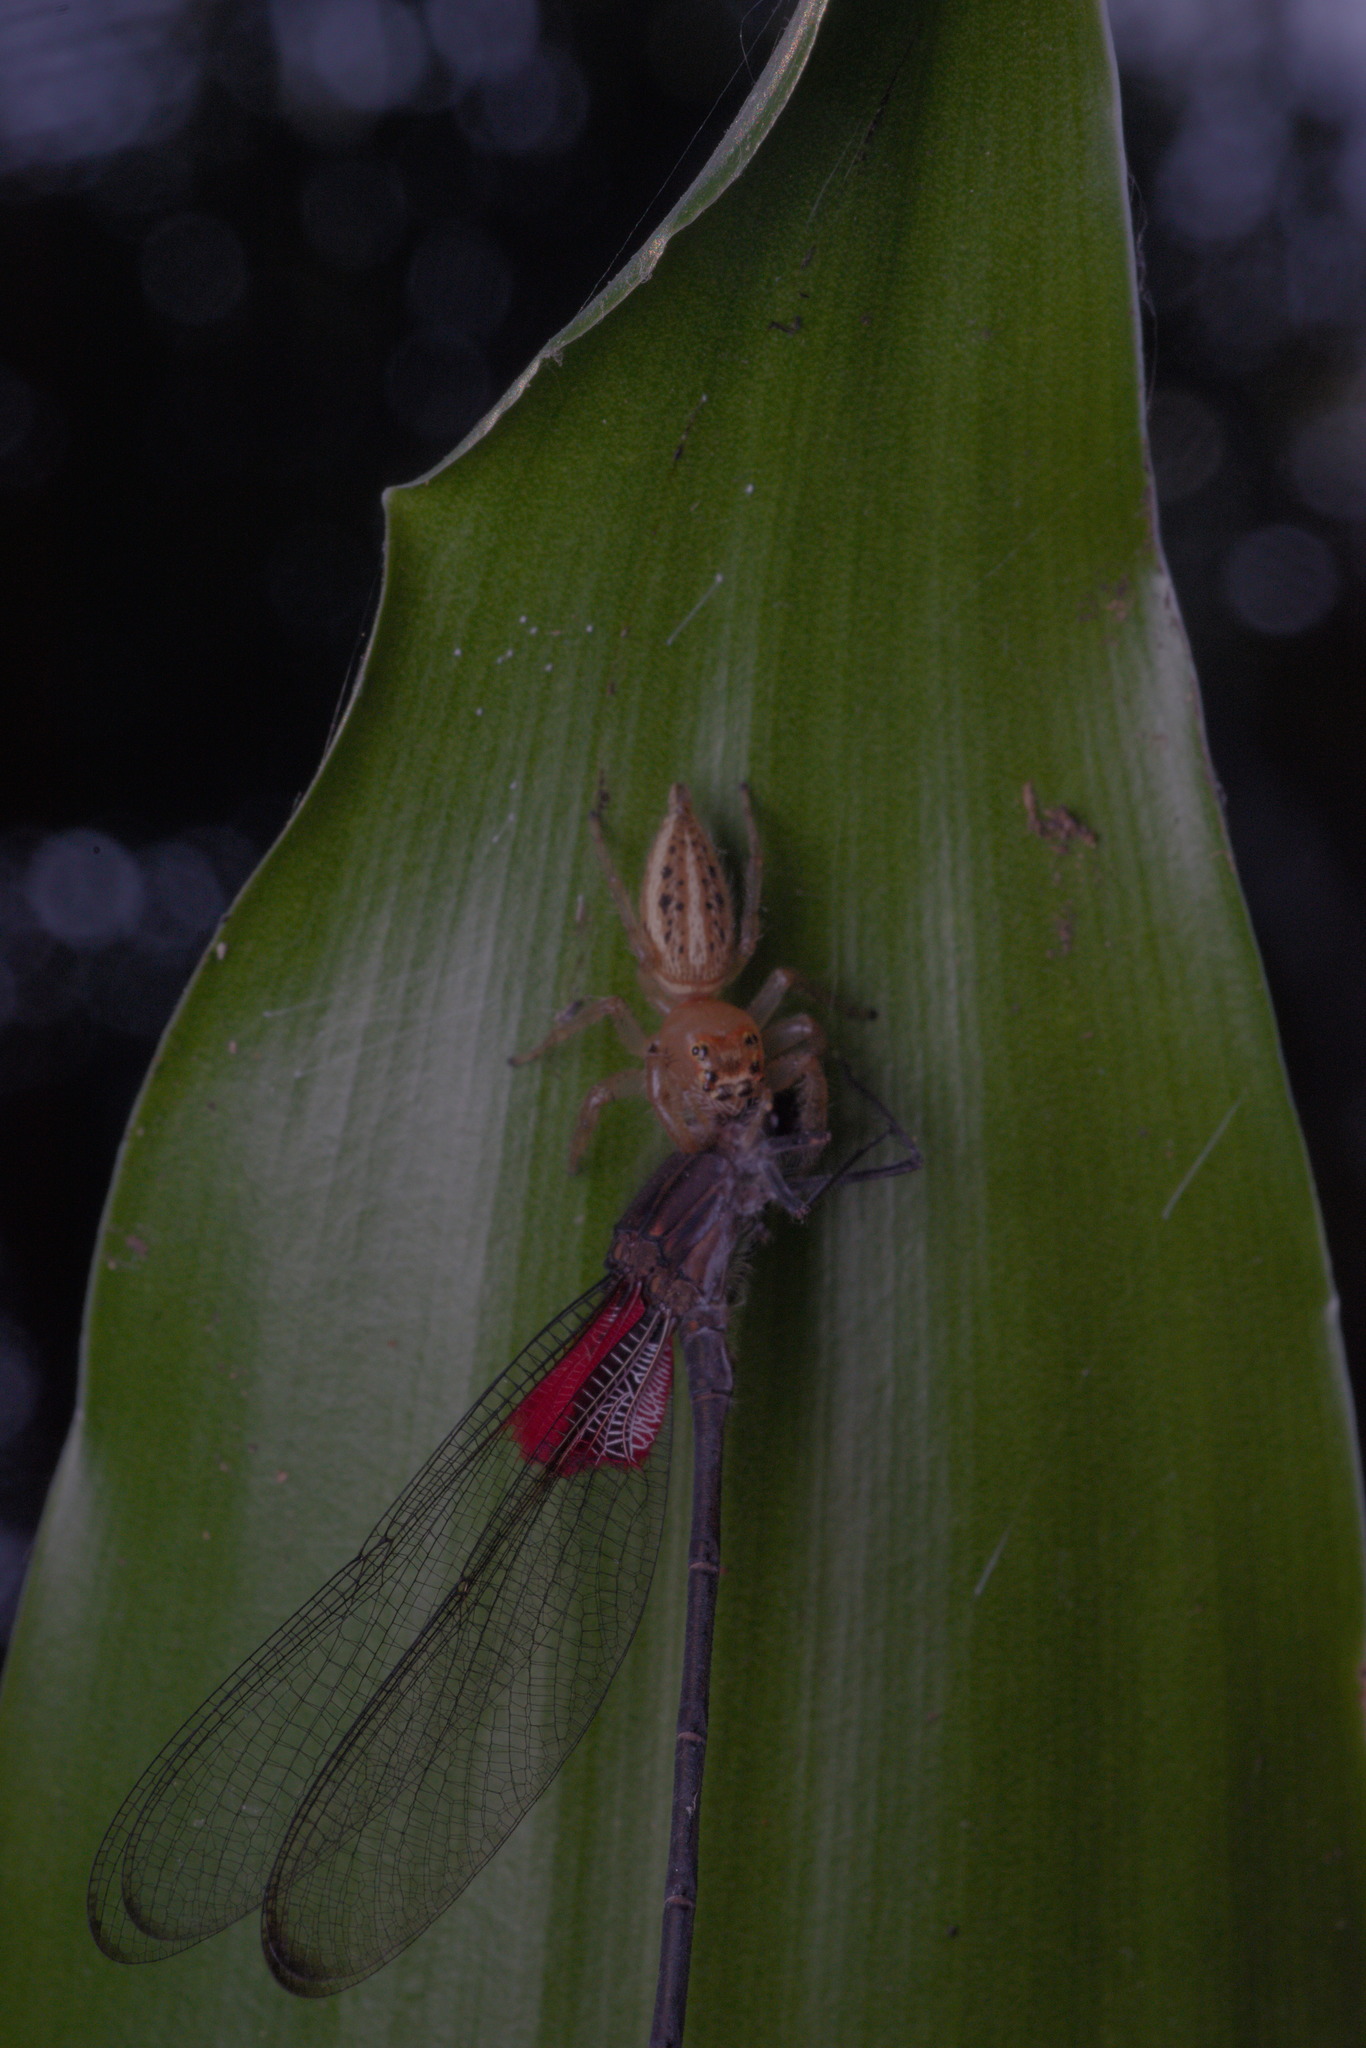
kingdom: Animalia
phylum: Arthropoda
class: Arachnida
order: Araneae
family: Salticidae
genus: Colonus
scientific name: Colonus sylvanus
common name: Jumping spiders
